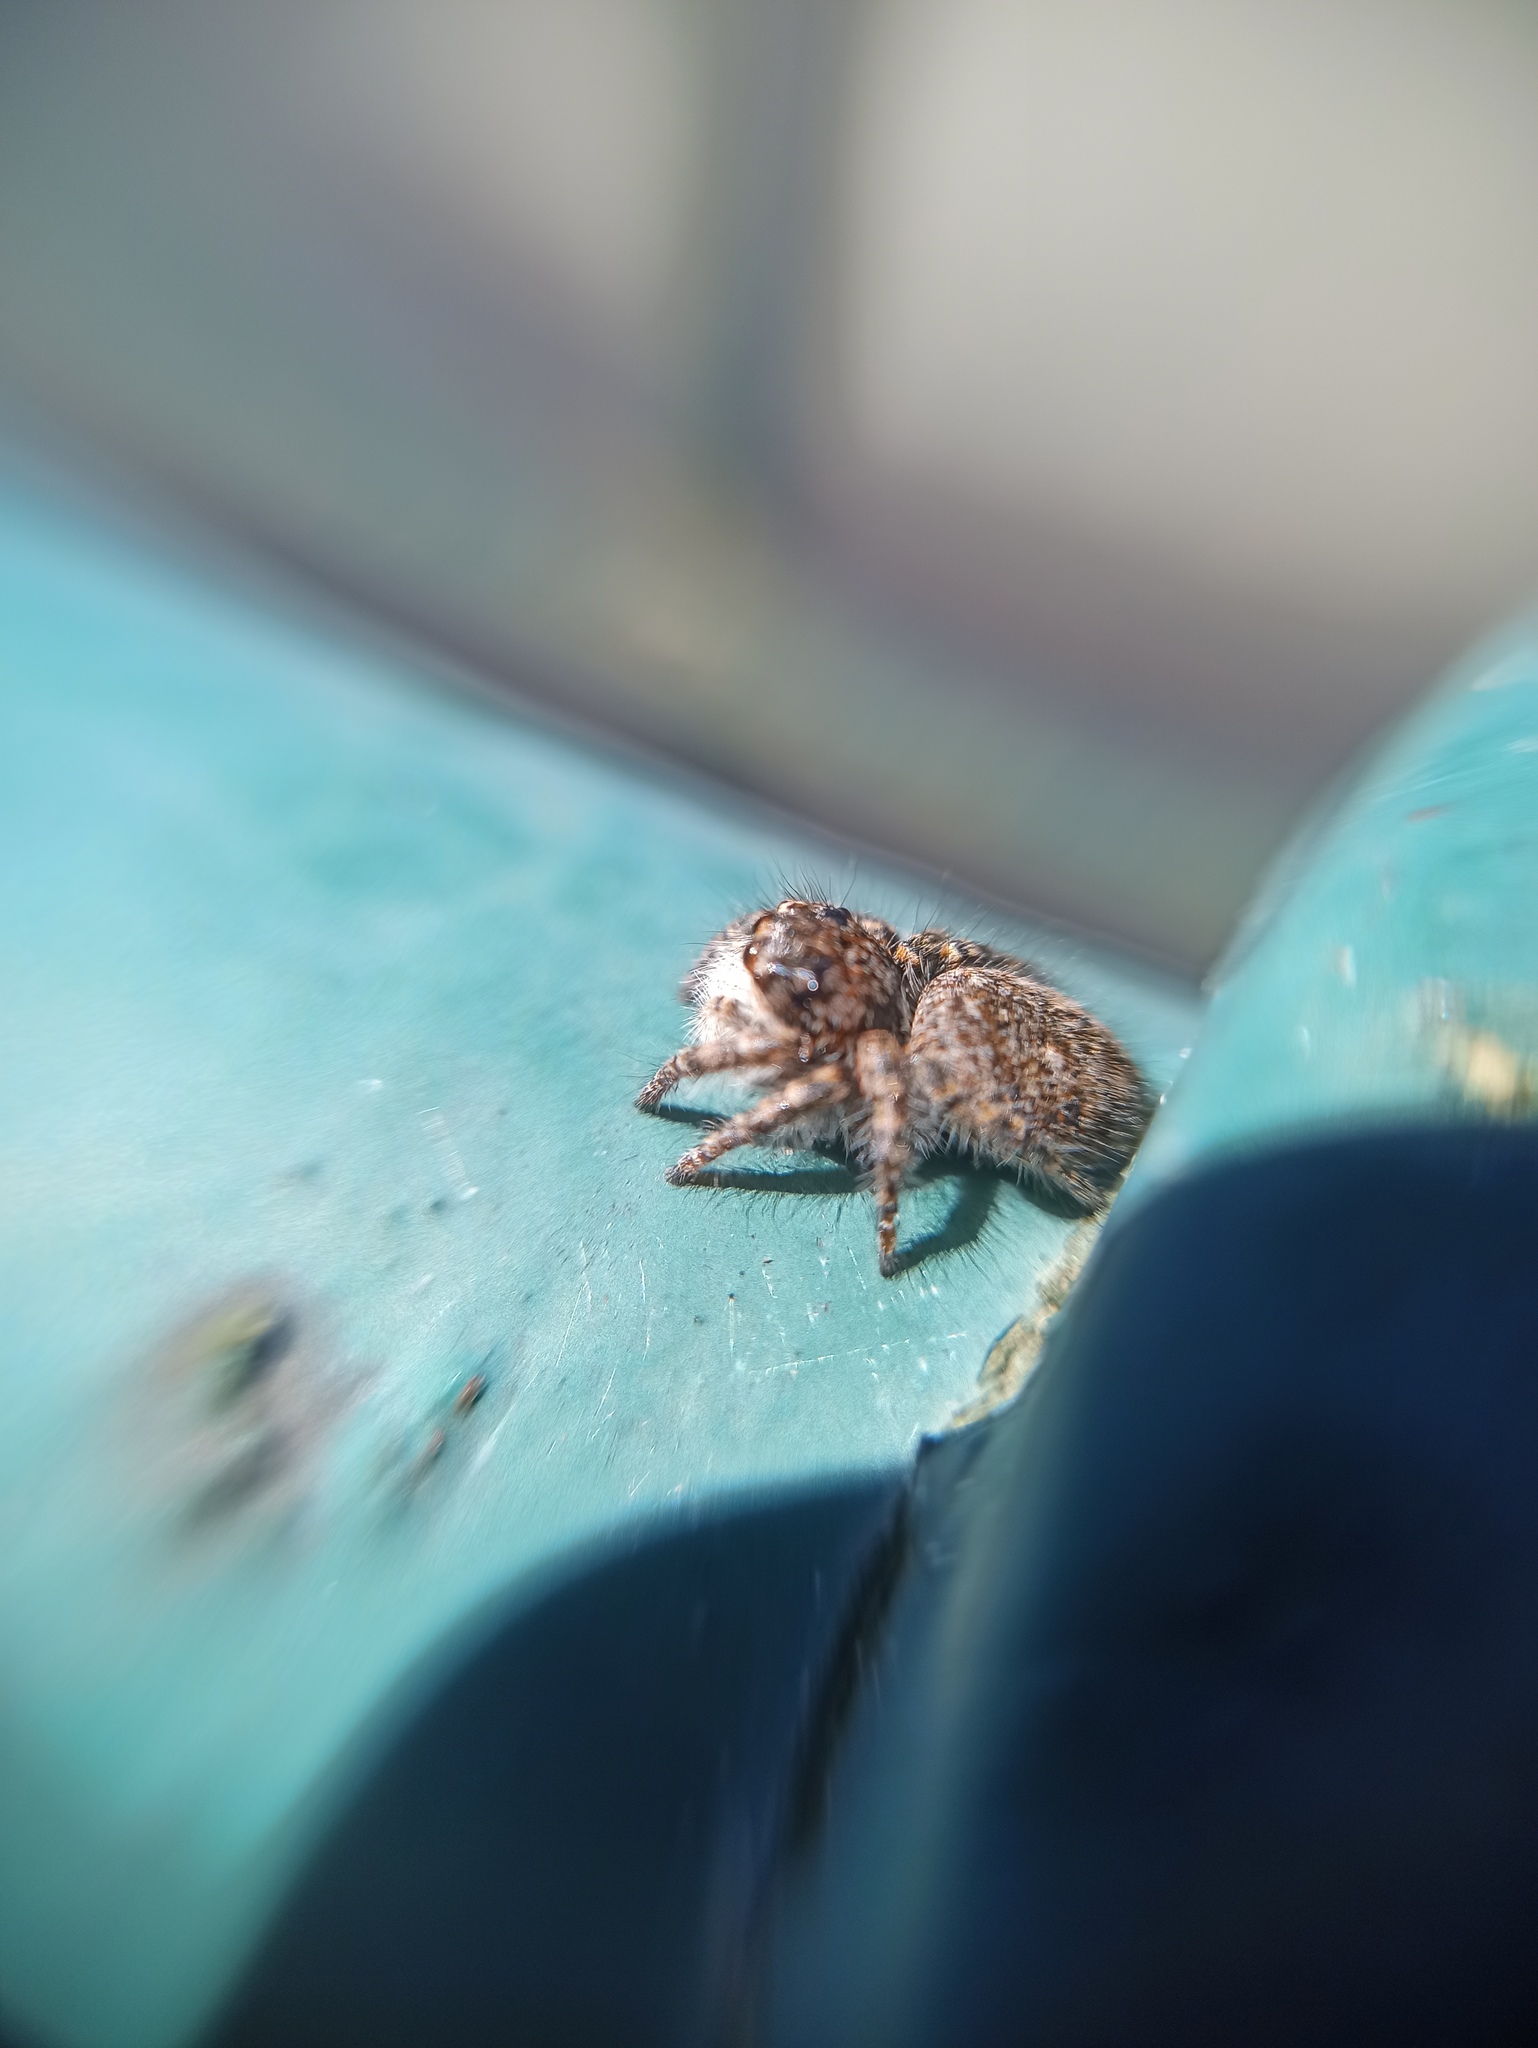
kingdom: Animalia
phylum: Arthropoda
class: Arachnida
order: Araneae
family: Salticidae
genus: Philaeus
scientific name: Philaeus chrysops
